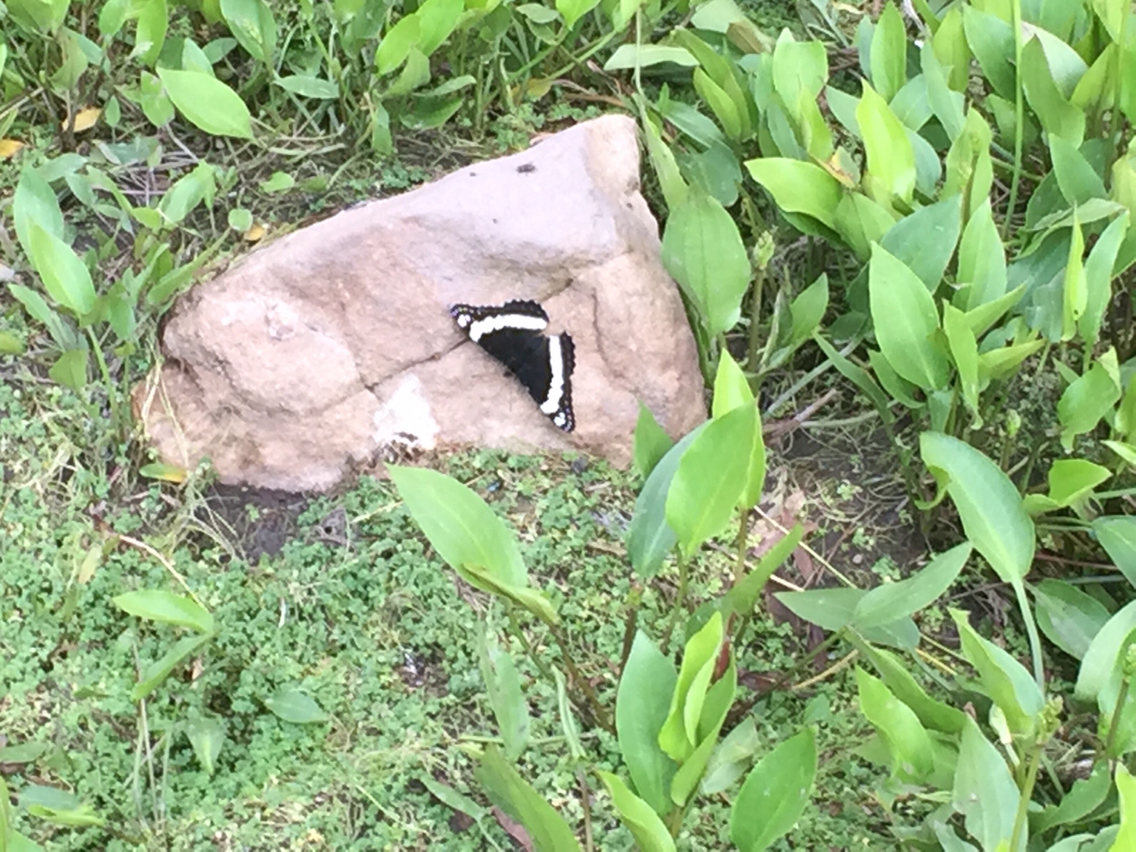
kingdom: Animalia
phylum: Arthropoda
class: Insecta
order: Lepidoptera
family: Nymphalidae
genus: Limenitis
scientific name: Limenitis weidemeyerii
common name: Weidemeyer's admiral
